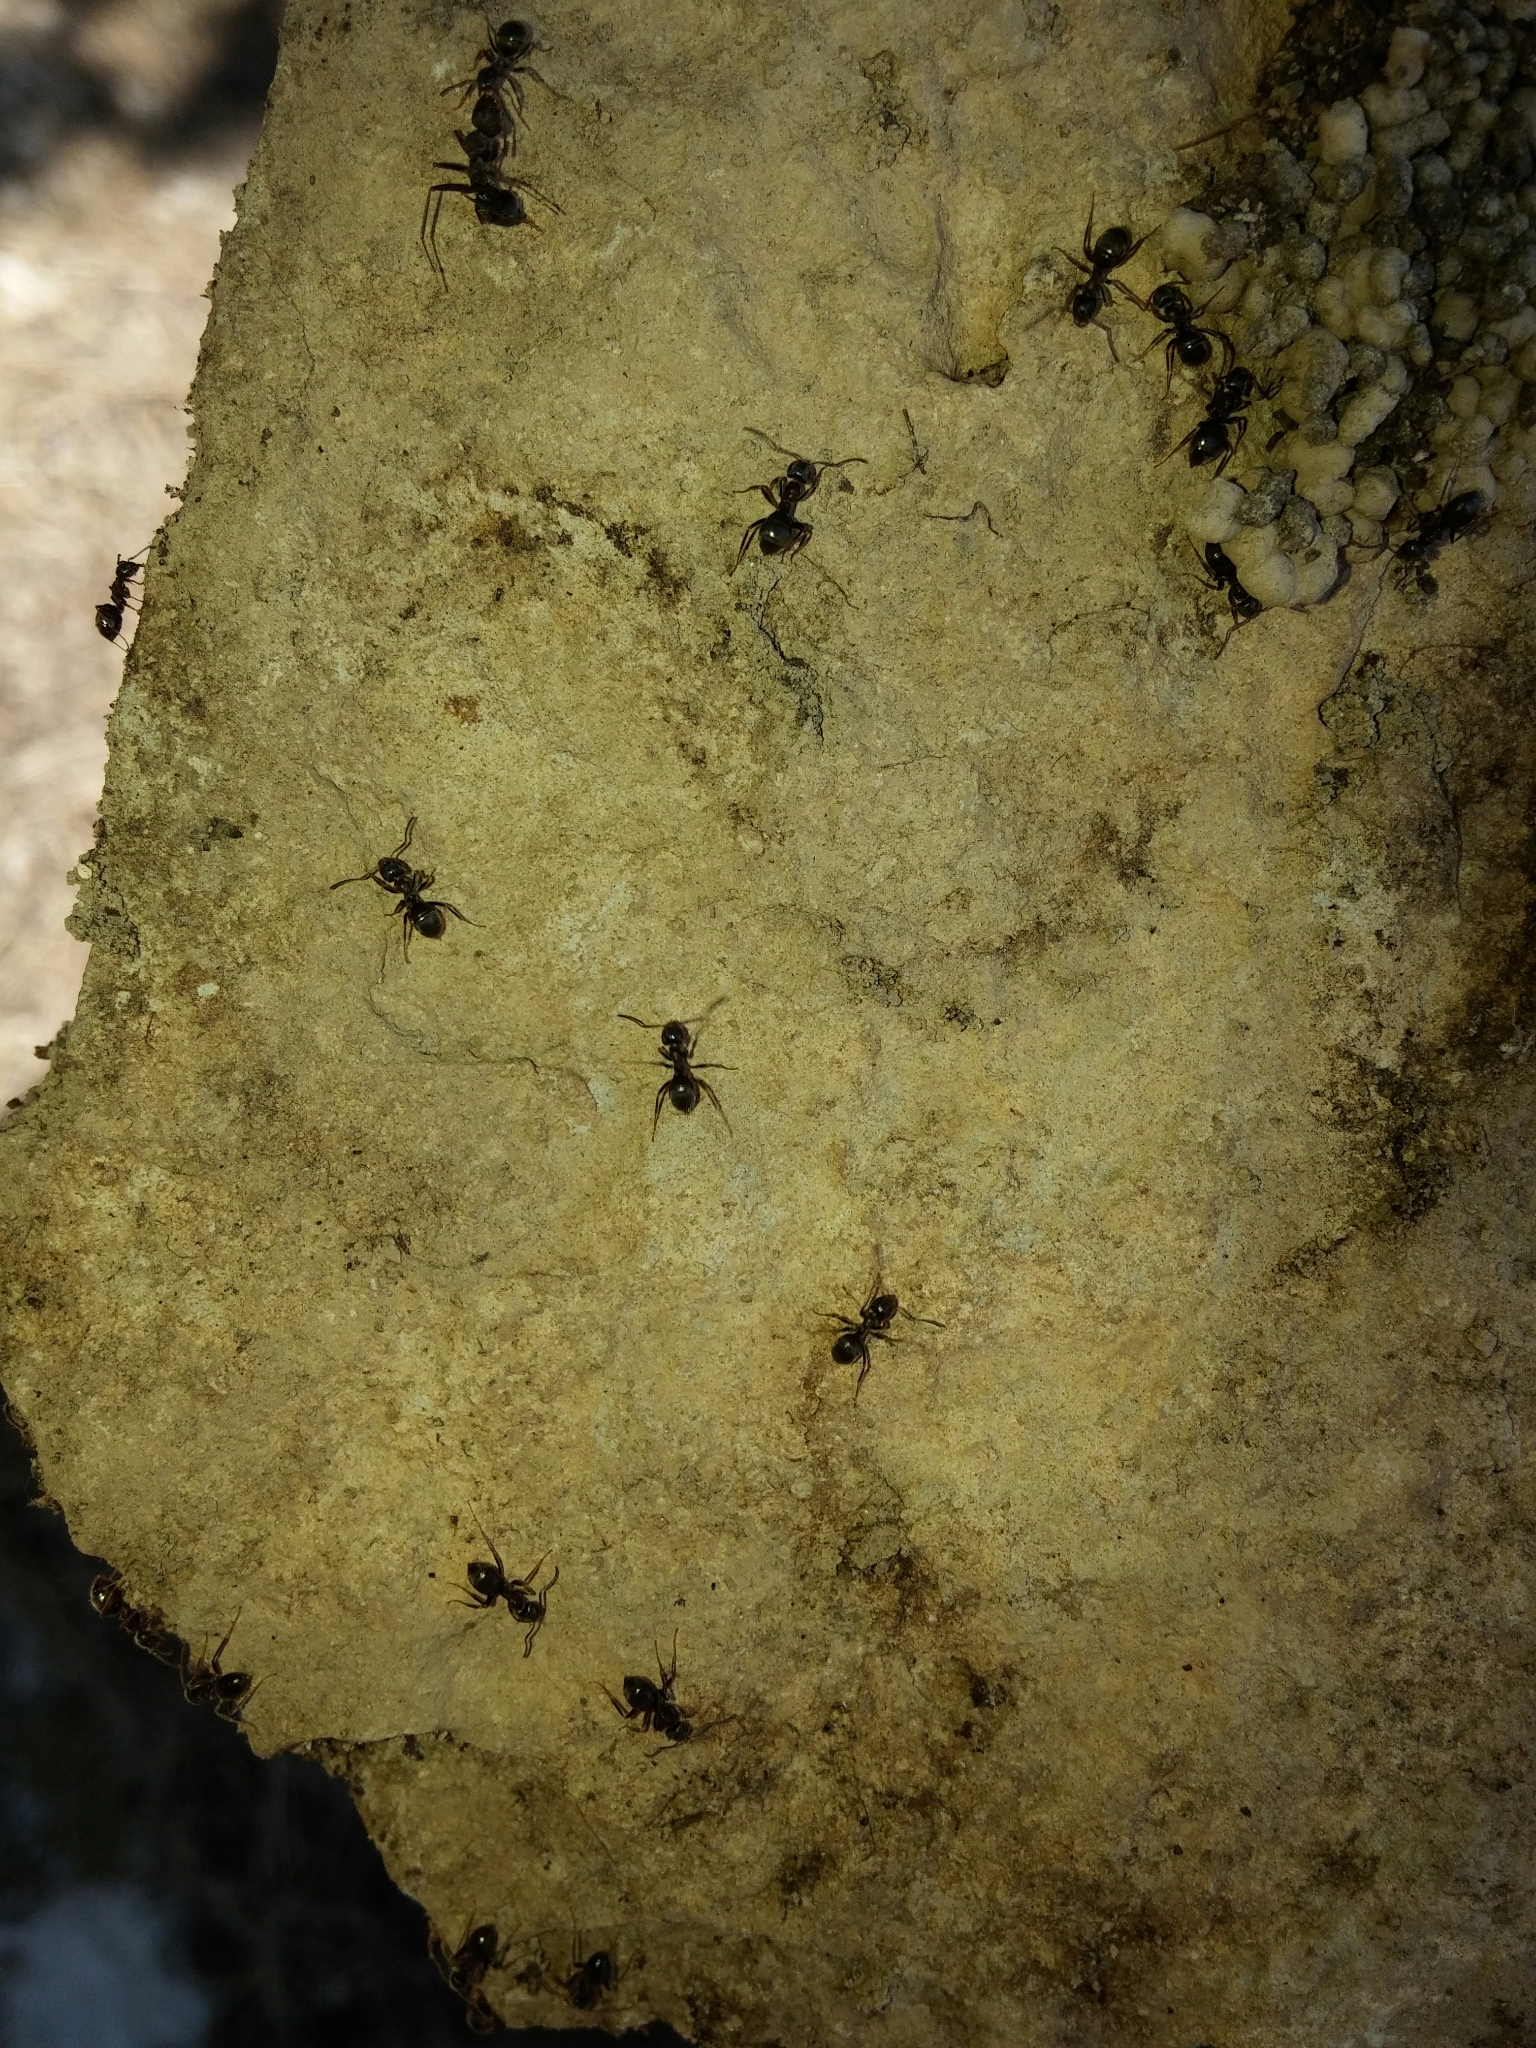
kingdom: Animalia
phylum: Arthropoda
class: Insecta
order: Hymenoptera
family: Formicidae
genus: Lasius
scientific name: Lasius grandis
